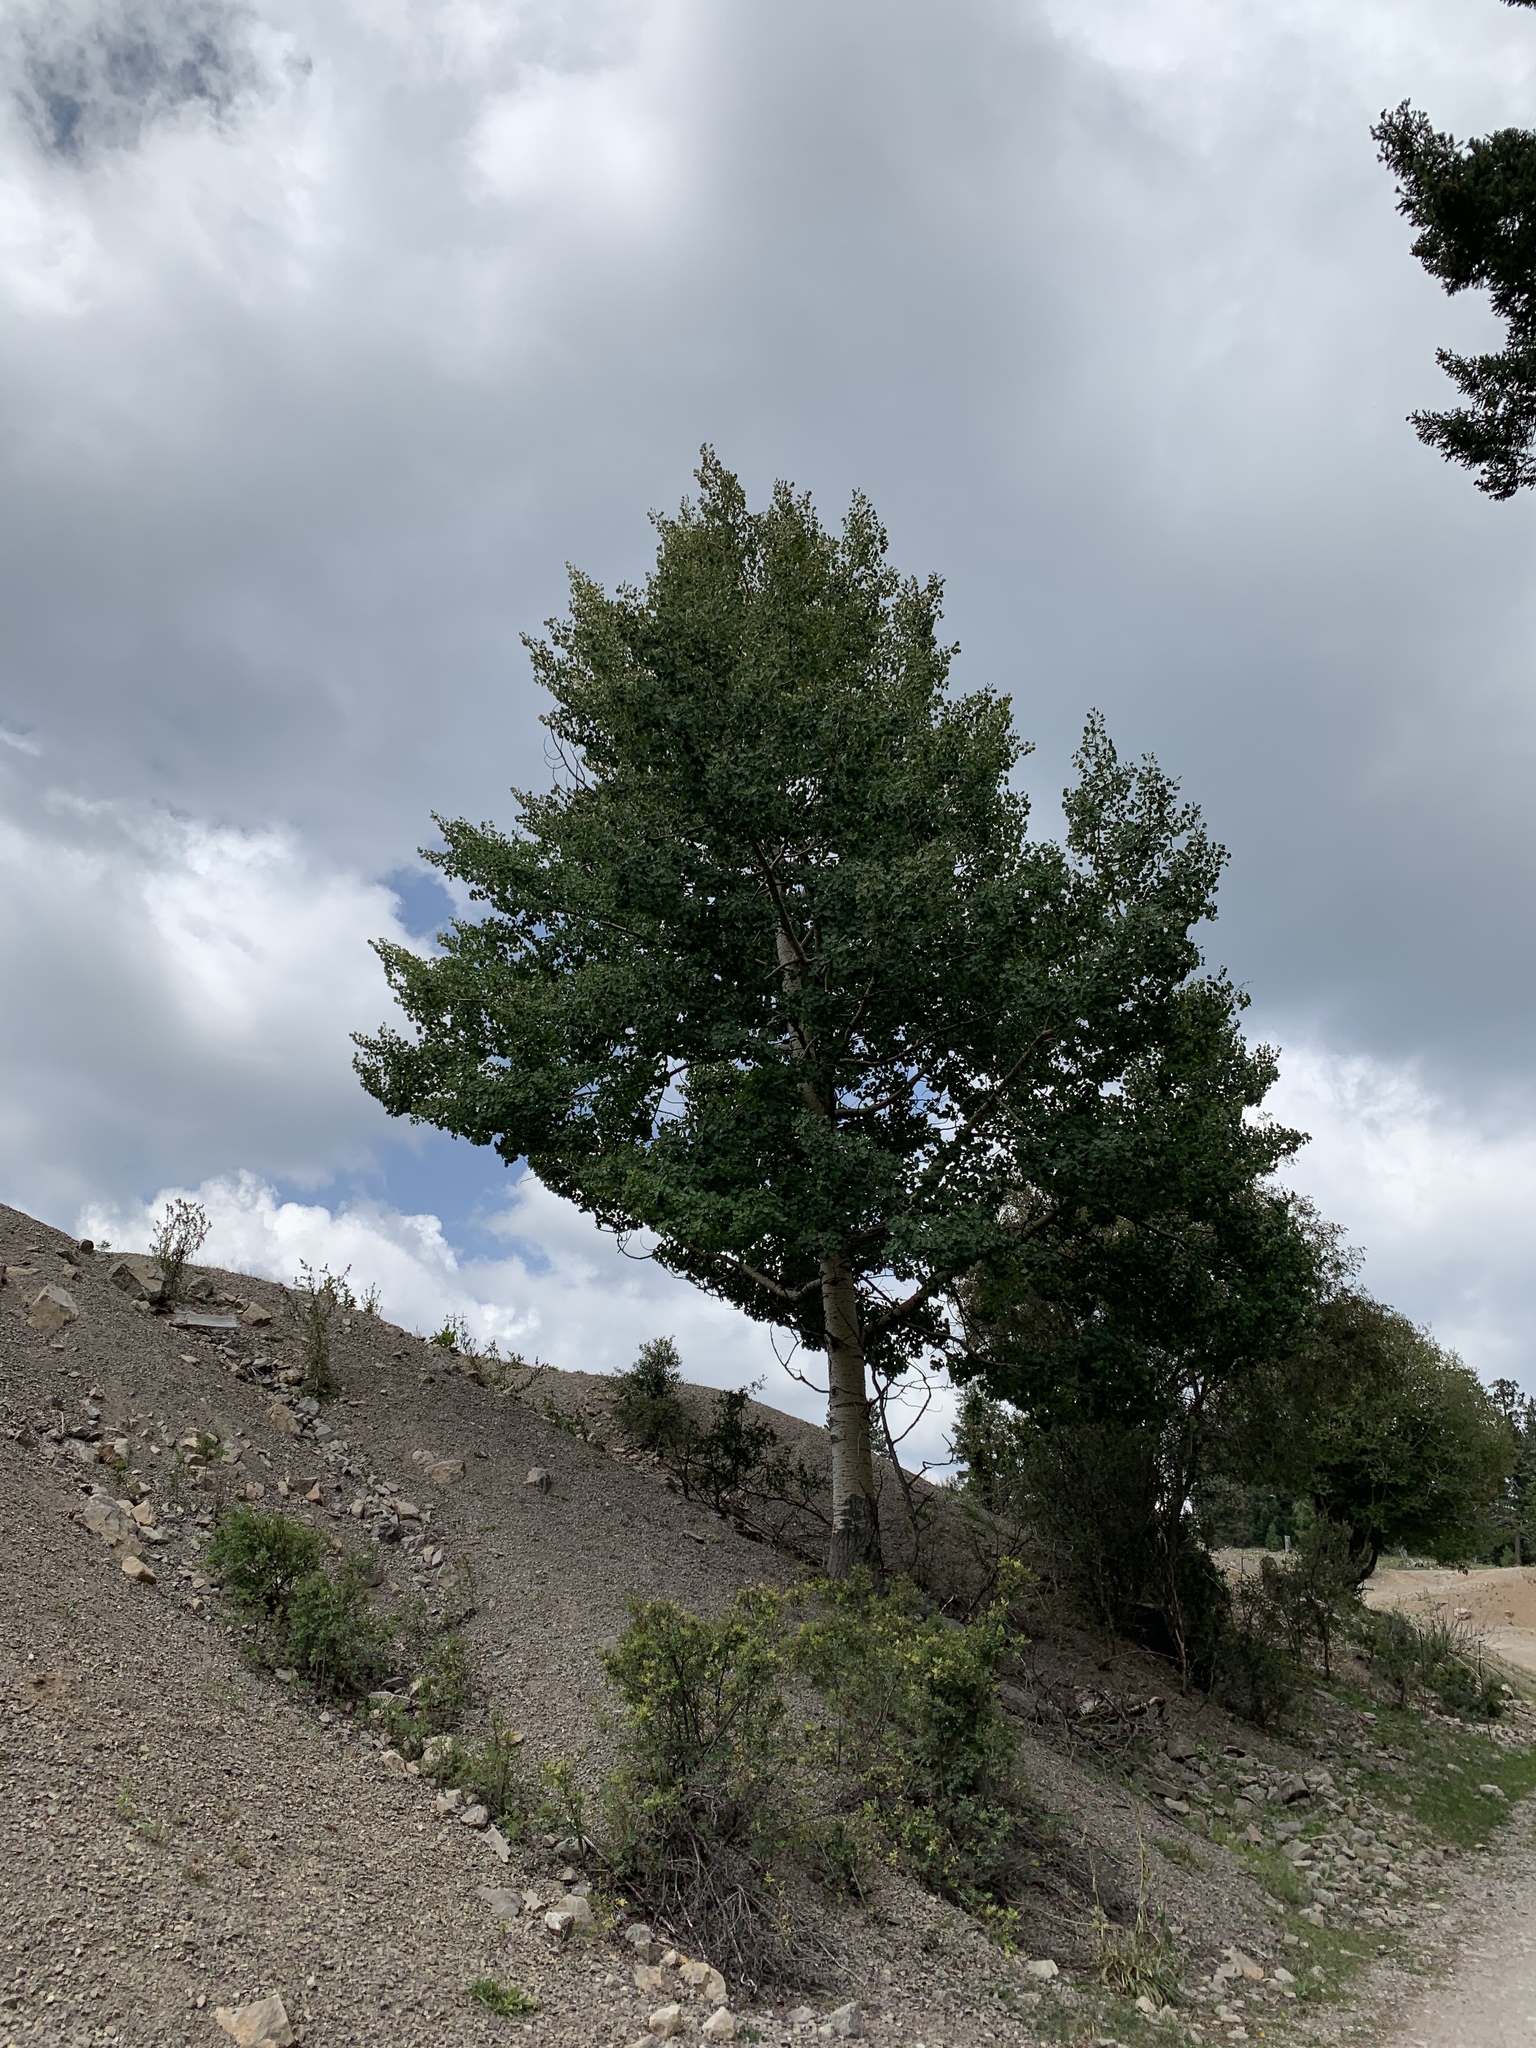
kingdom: Plantae
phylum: Tracheophyta
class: Magnoliopsida
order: Malpighiales
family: Salicaceae
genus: Populus
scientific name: Populus tremuloides
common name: Quaking aspen
